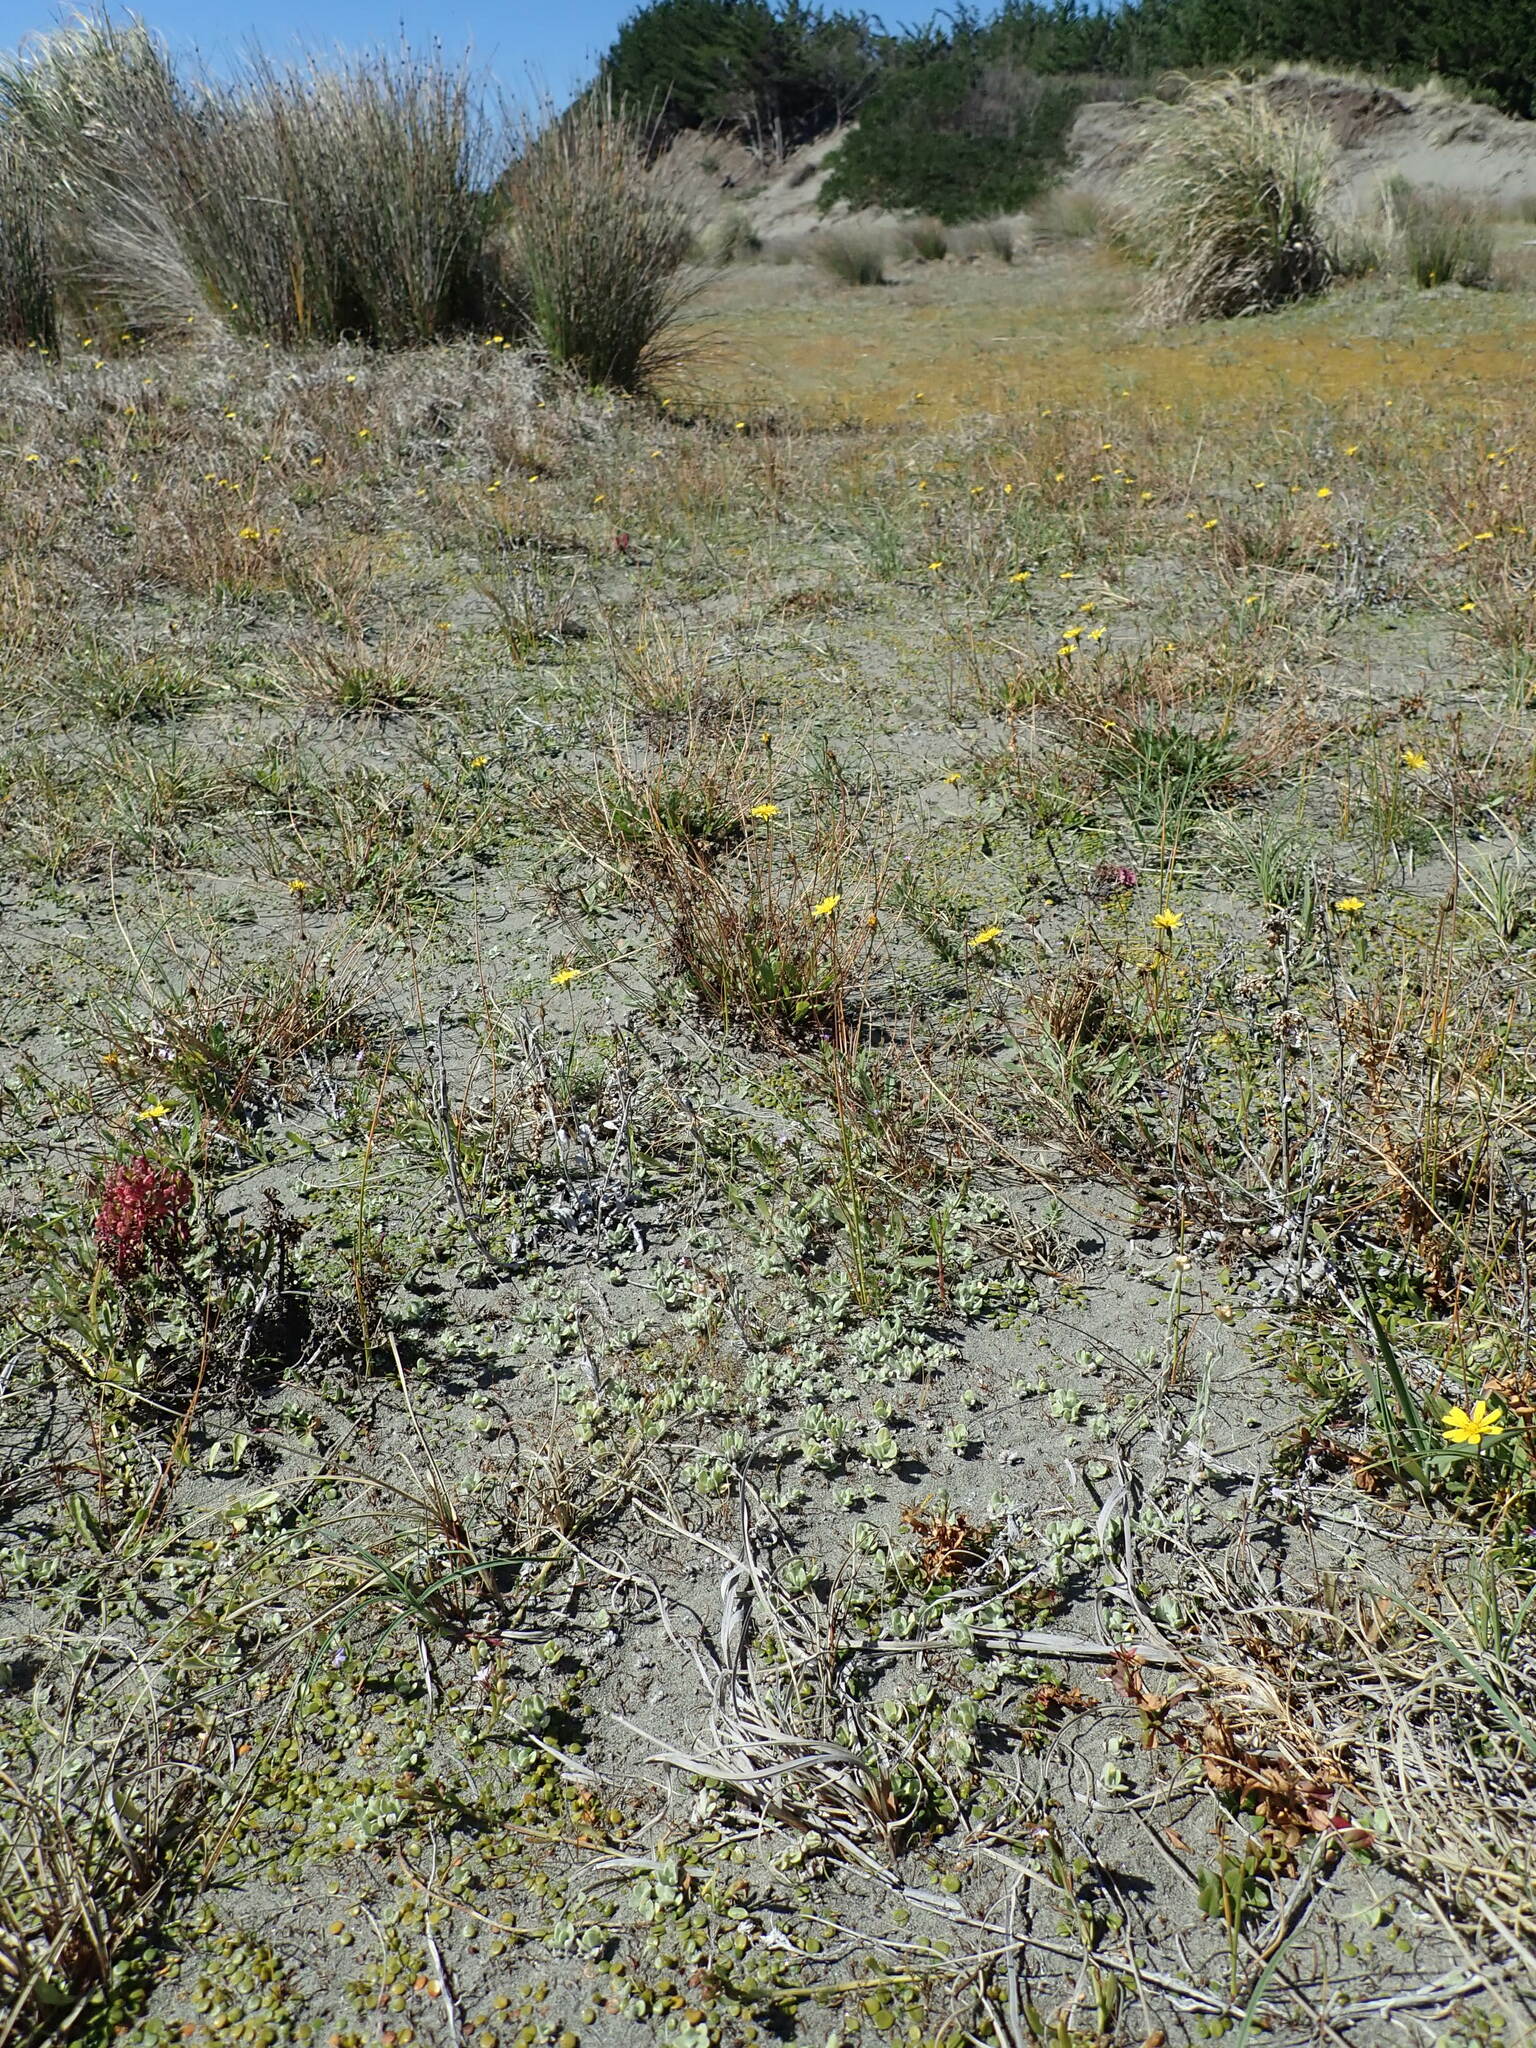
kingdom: Plantae
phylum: Tracheophyta
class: Magnoliopsida
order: Asterales
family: Asteraceae
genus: Helichrysum
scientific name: Helichrysum luteoalbum
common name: Daisy
